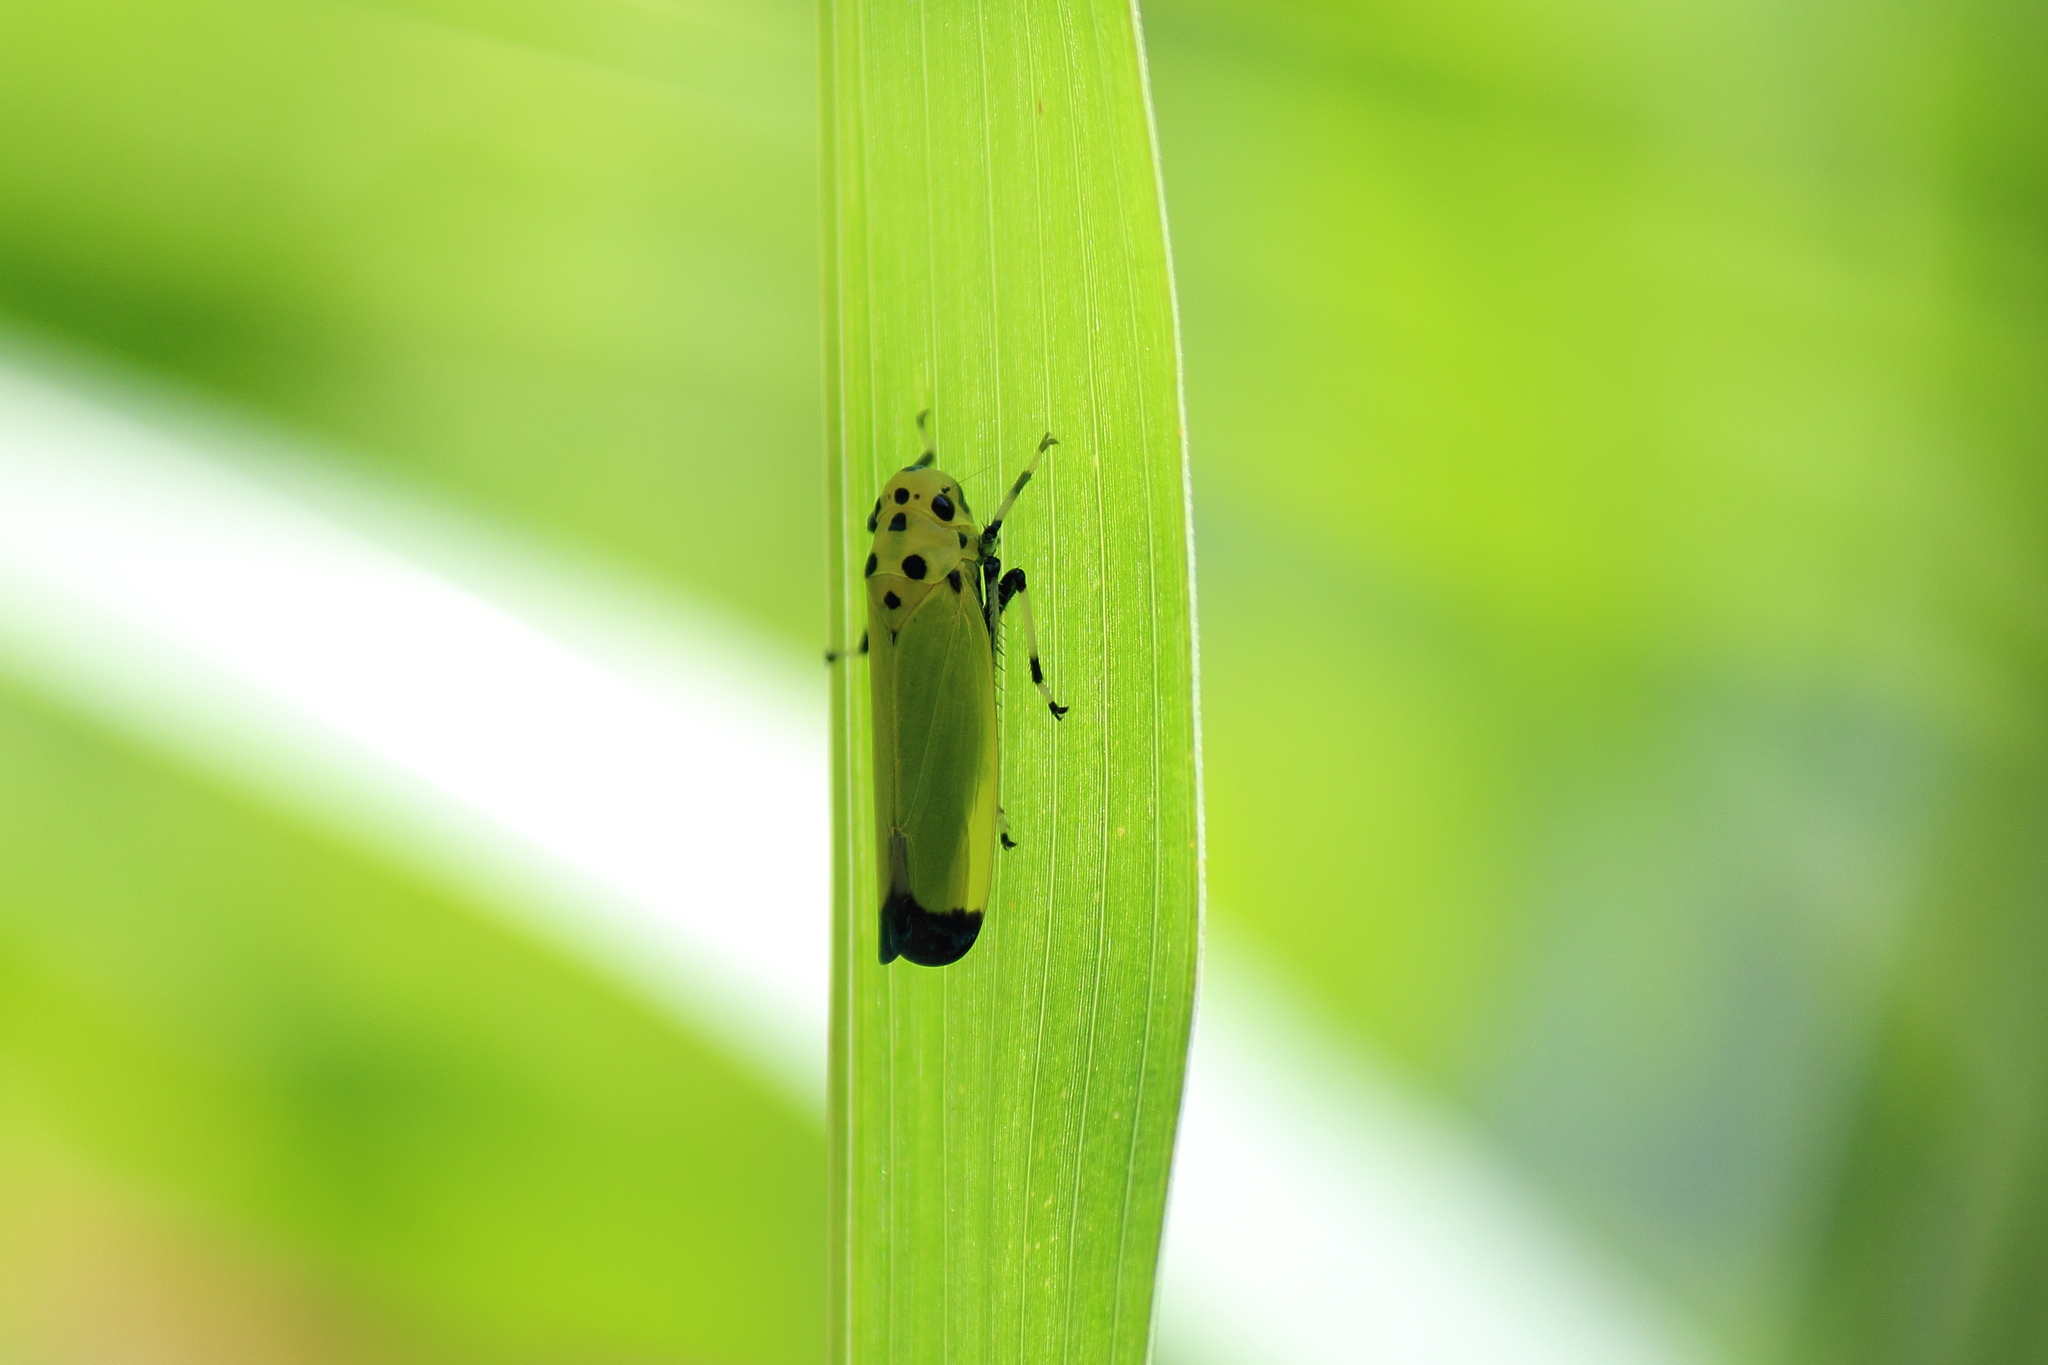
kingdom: Animalia
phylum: Arthropoda
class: Insecta
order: Hemiptera
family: Cicadellidae
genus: Bothrogonia
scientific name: Bothrogonia ferruginea
